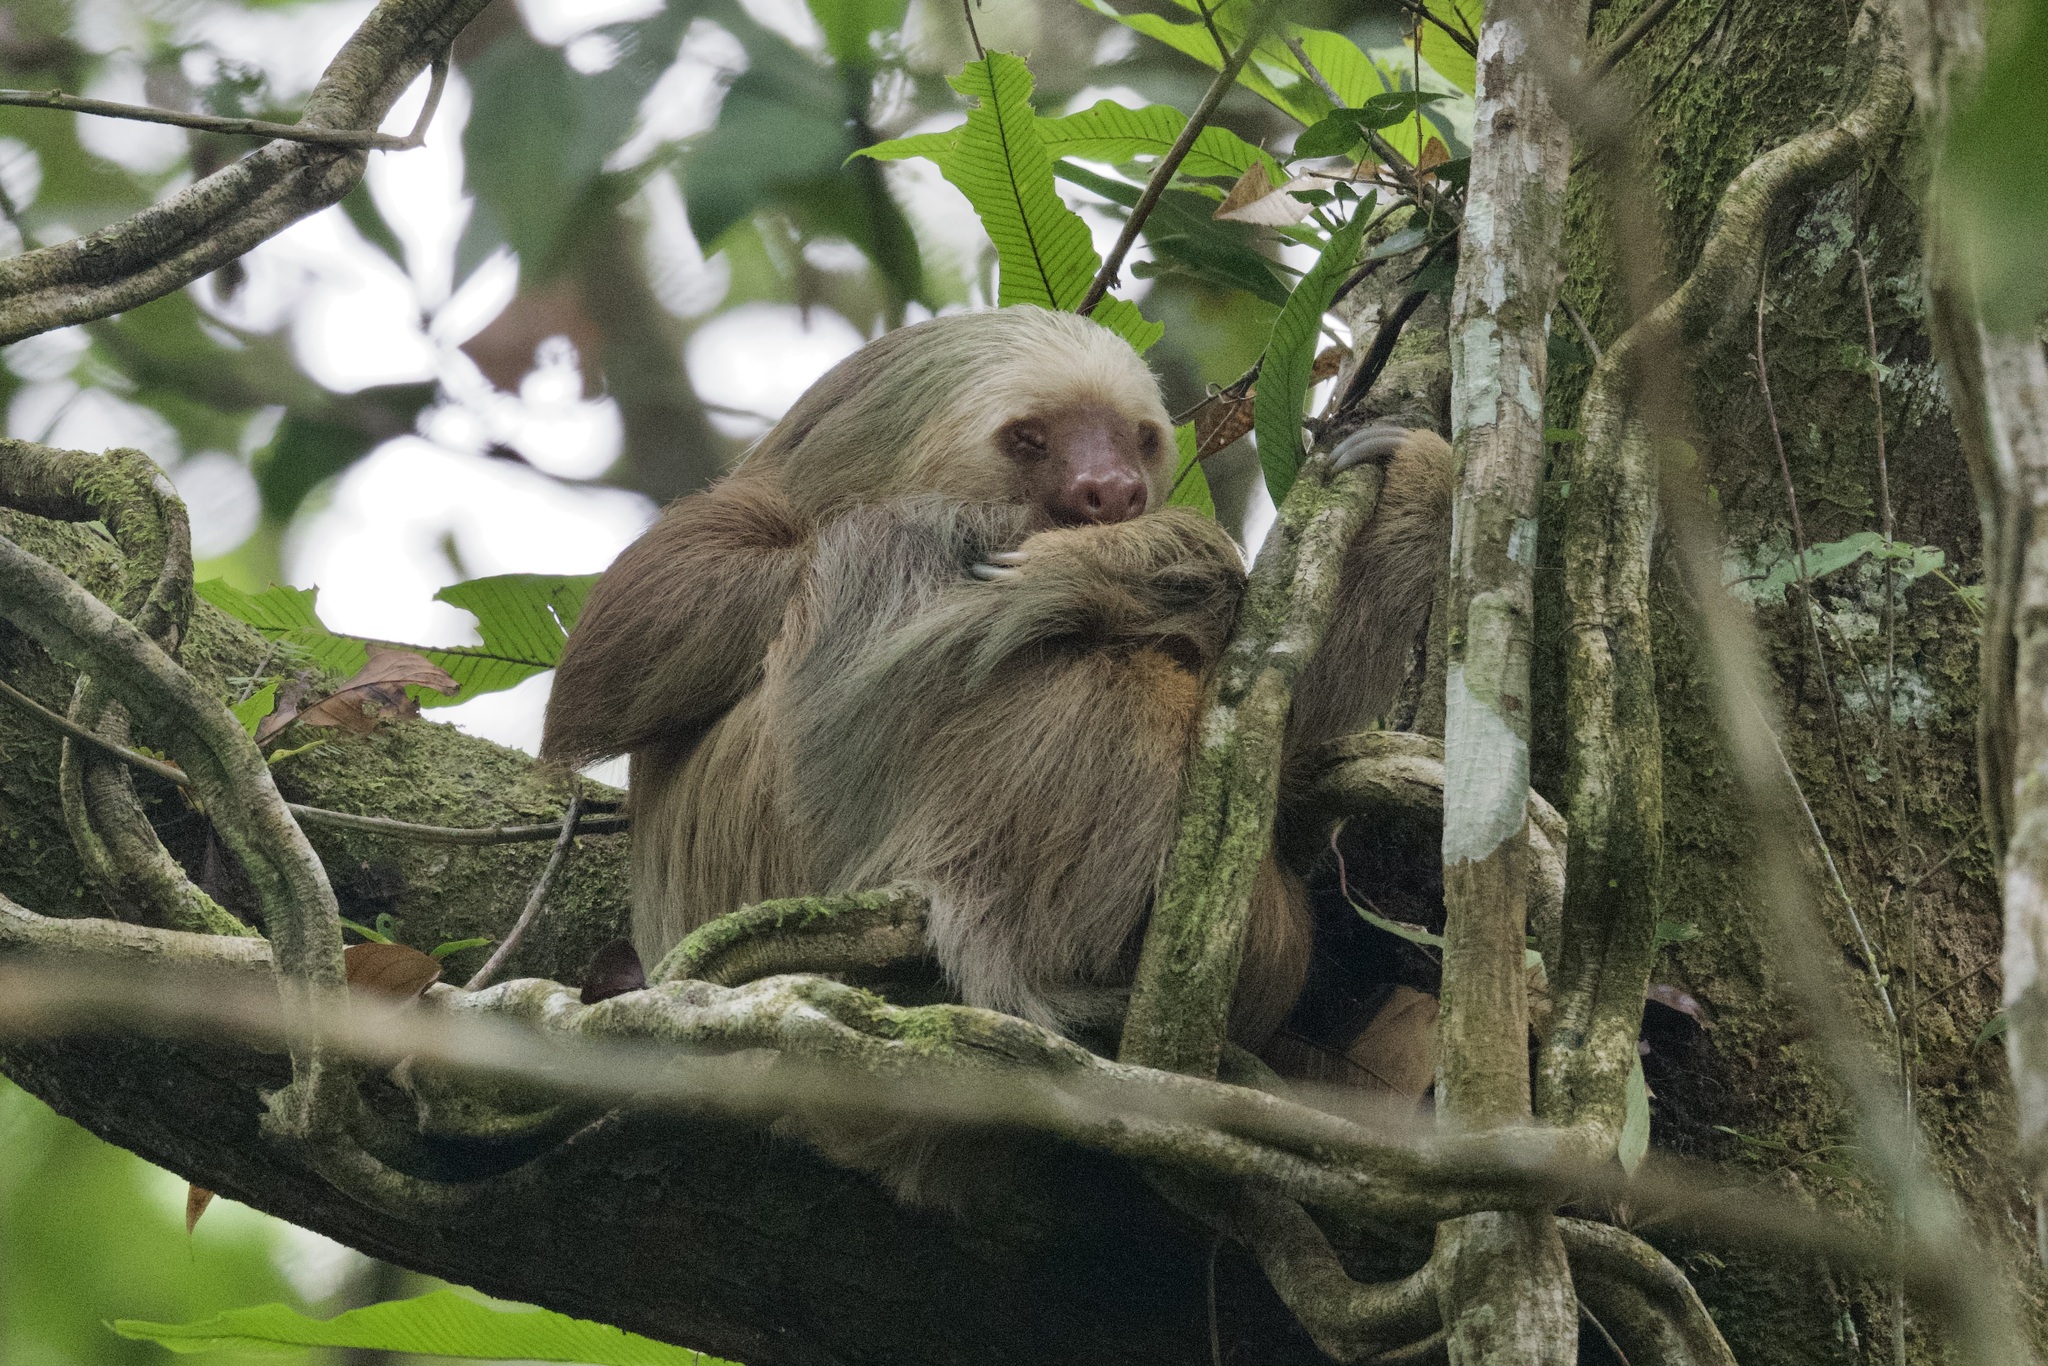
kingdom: Animalia
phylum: Chordata
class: Mammalia
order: Pilosa
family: Megalonychidae
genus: Choloepus
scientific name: Choloepus hoffmanni
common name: Hoffmann's two-toed sloth
